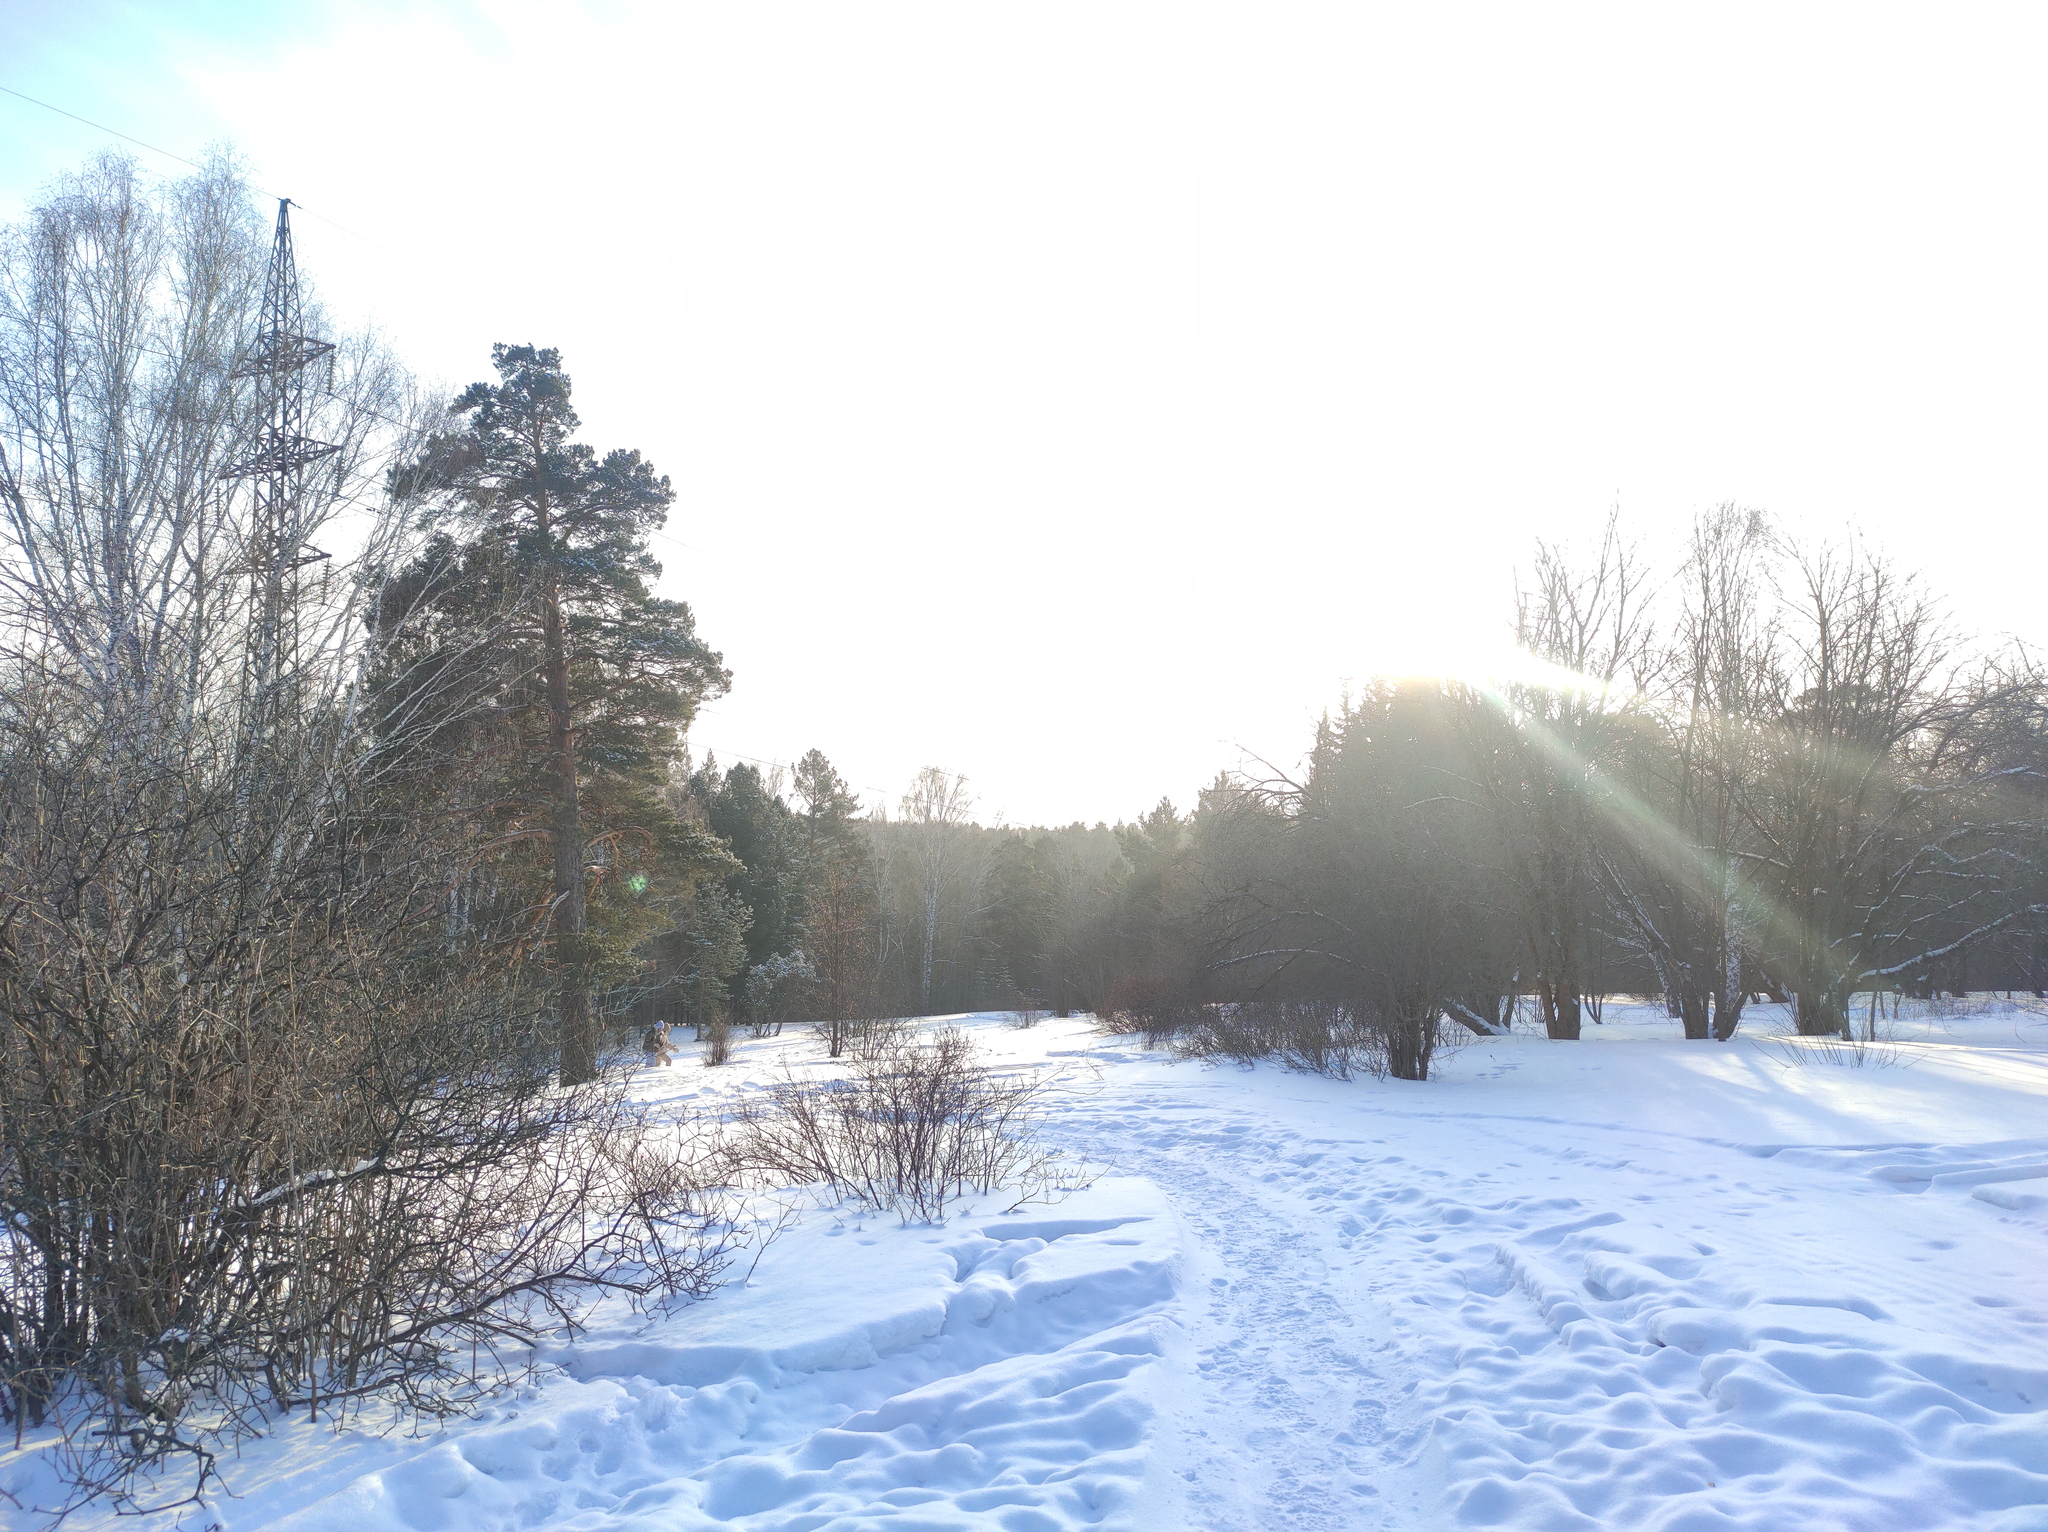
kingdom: Plantae
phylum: Tracheophyta
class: Pinopsida
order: Pinales
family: Pinaceae
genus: Pinus
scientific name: Pinus sylvestris
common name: Scots pine
